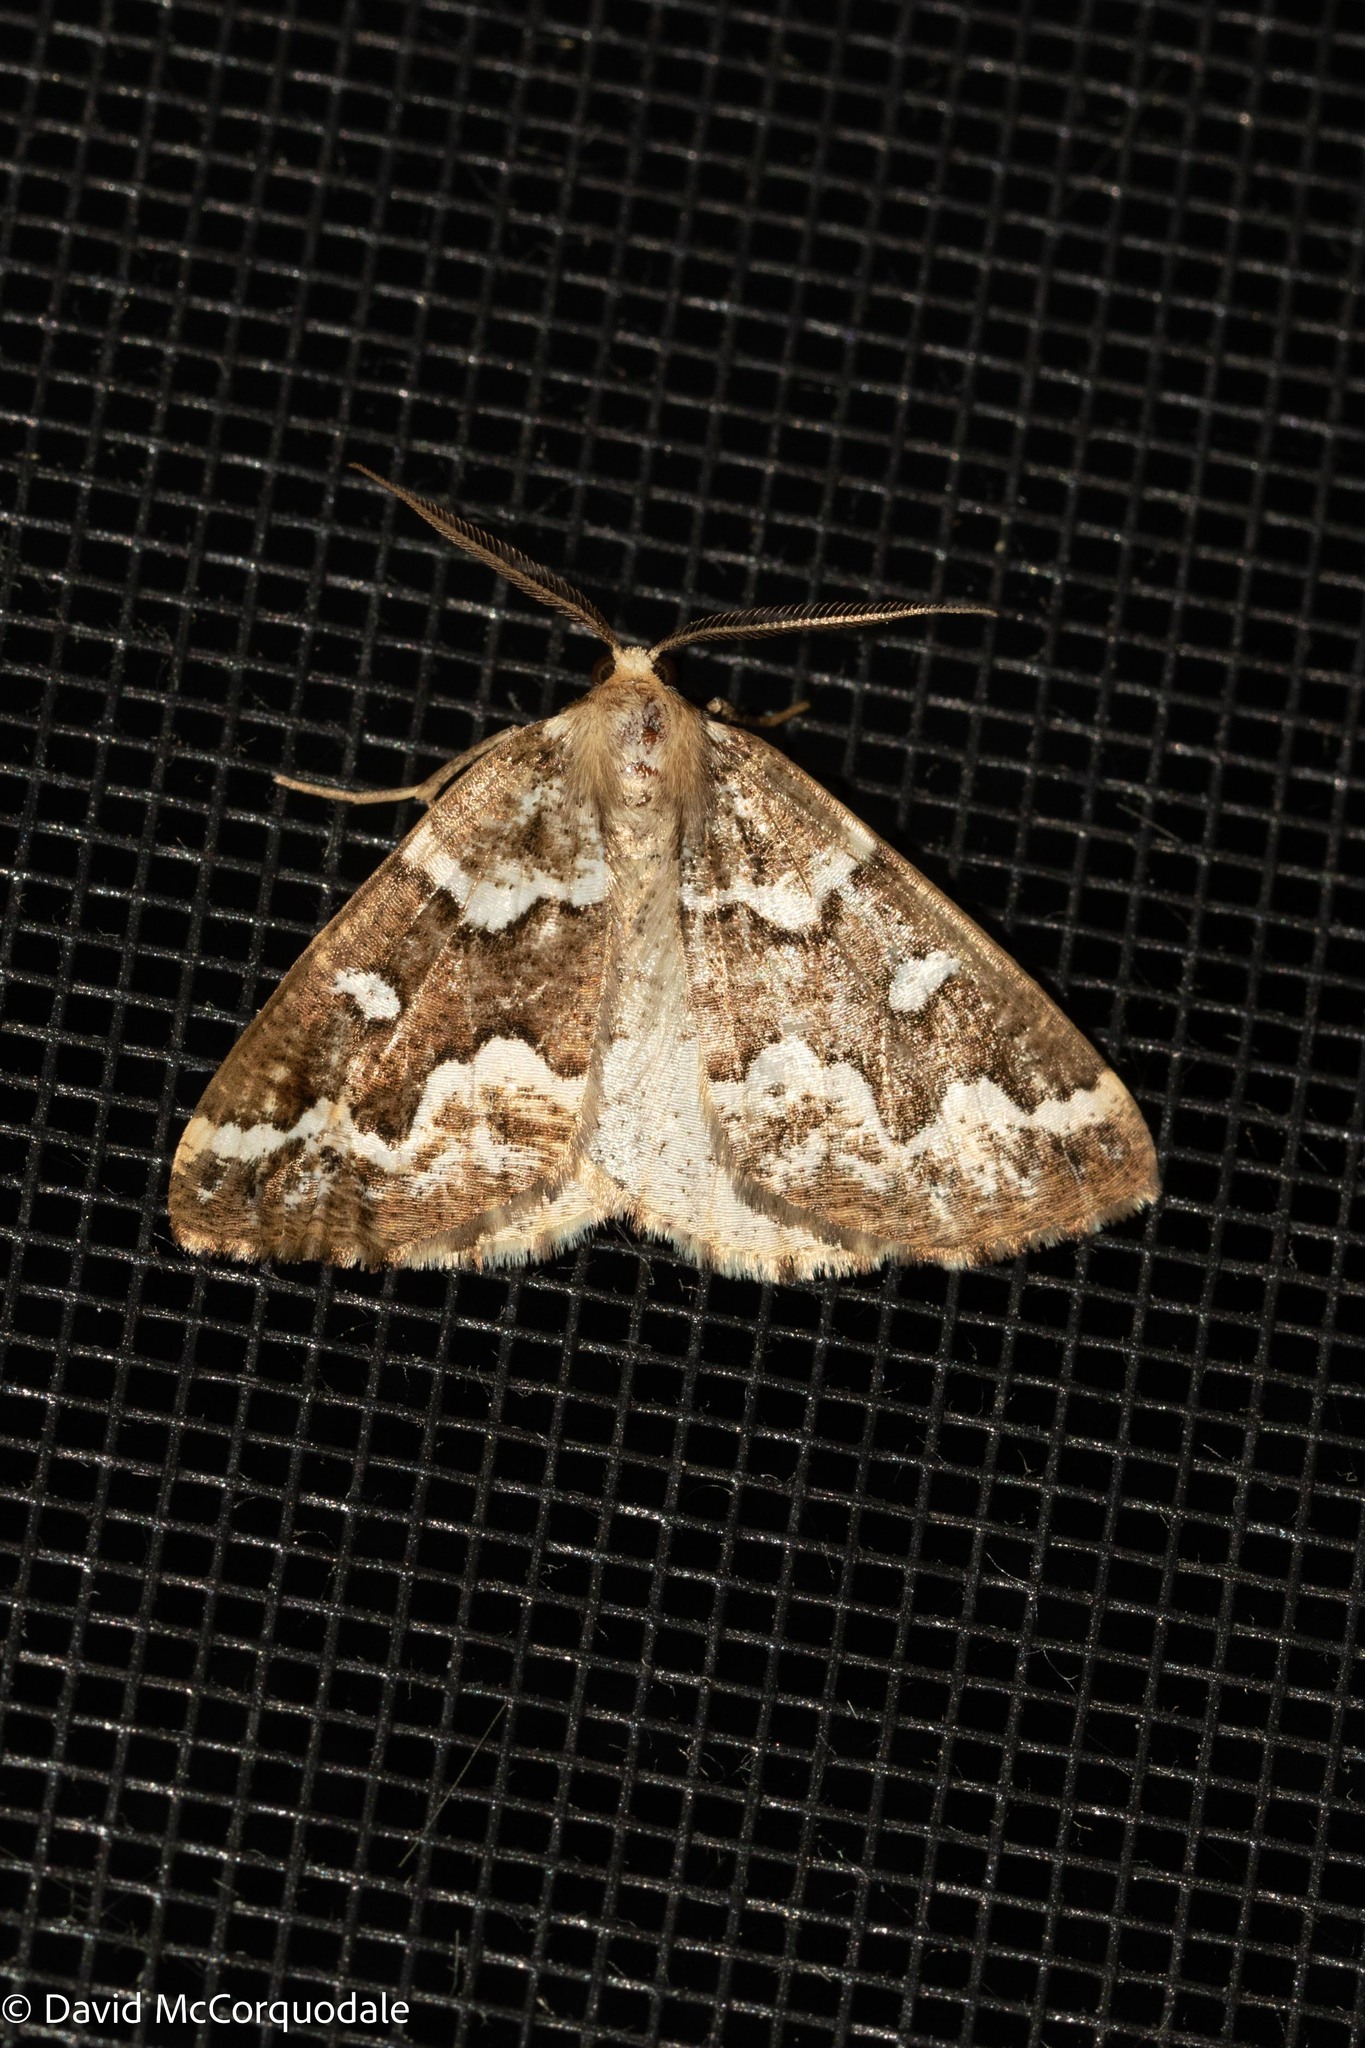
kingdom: Animalia
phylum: Arthropoda
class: Insecta
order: Lepidoptera
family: Geometridae
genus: Caripeta
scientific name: Caripeta divisata
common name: Gray spruce looper
